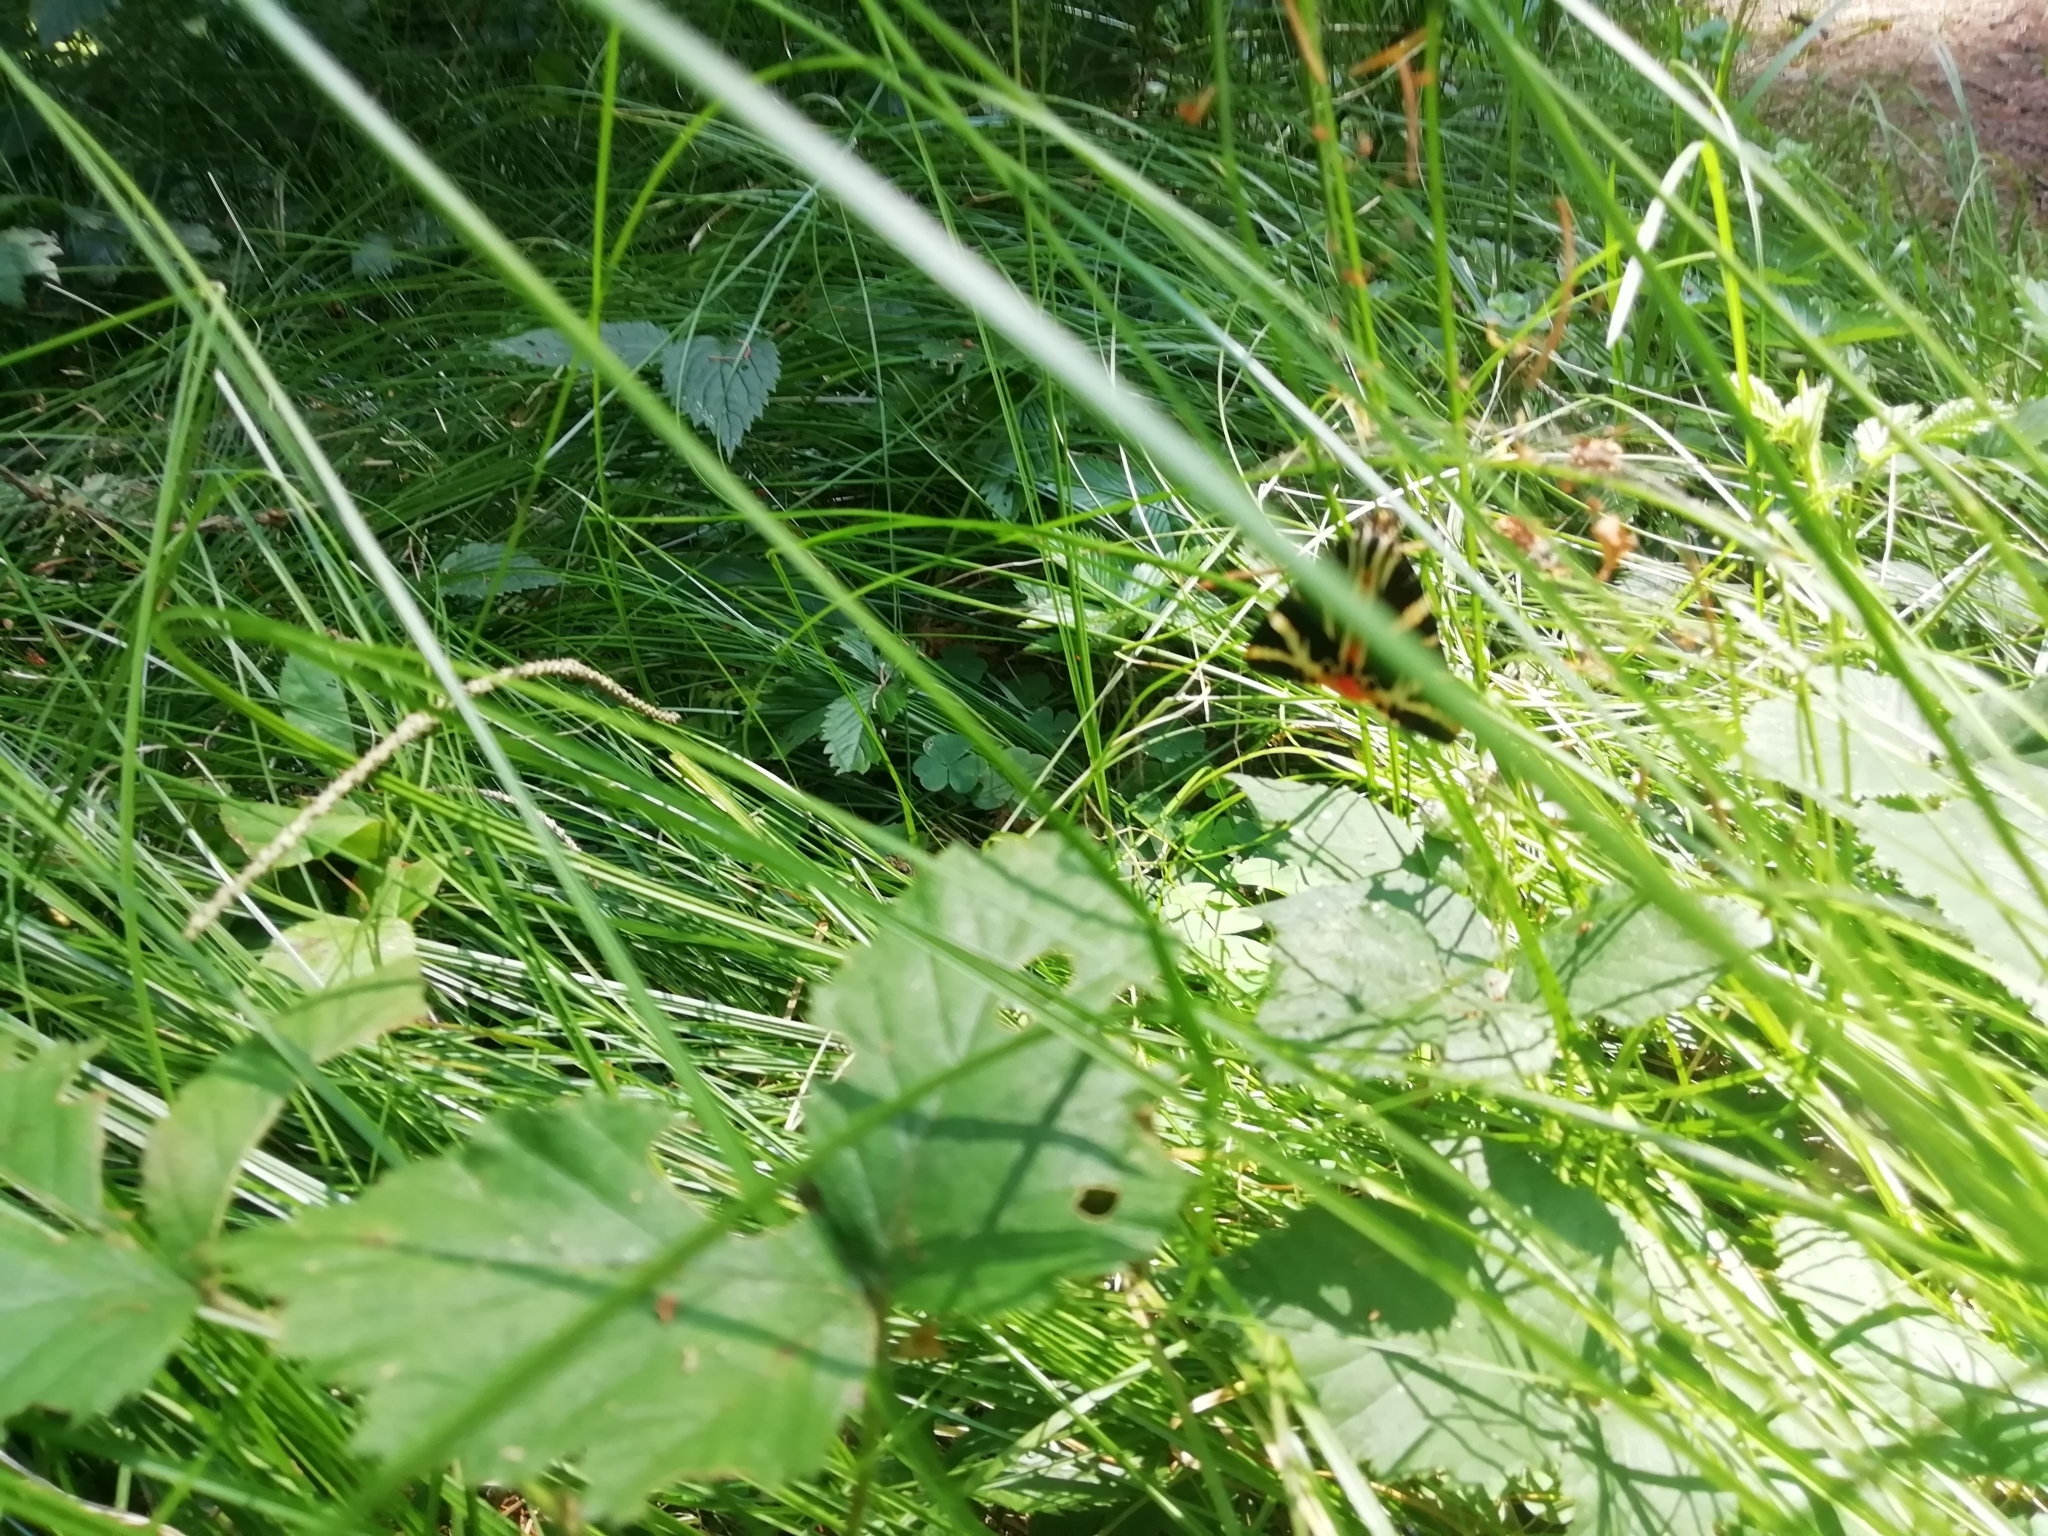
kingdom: Animalia
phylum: Arthropoda
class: Insecta
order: Lepidoptera
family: Erebidae
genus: Euplagia
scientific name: Euplagia quadripunctaria
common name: Jersey tiger
